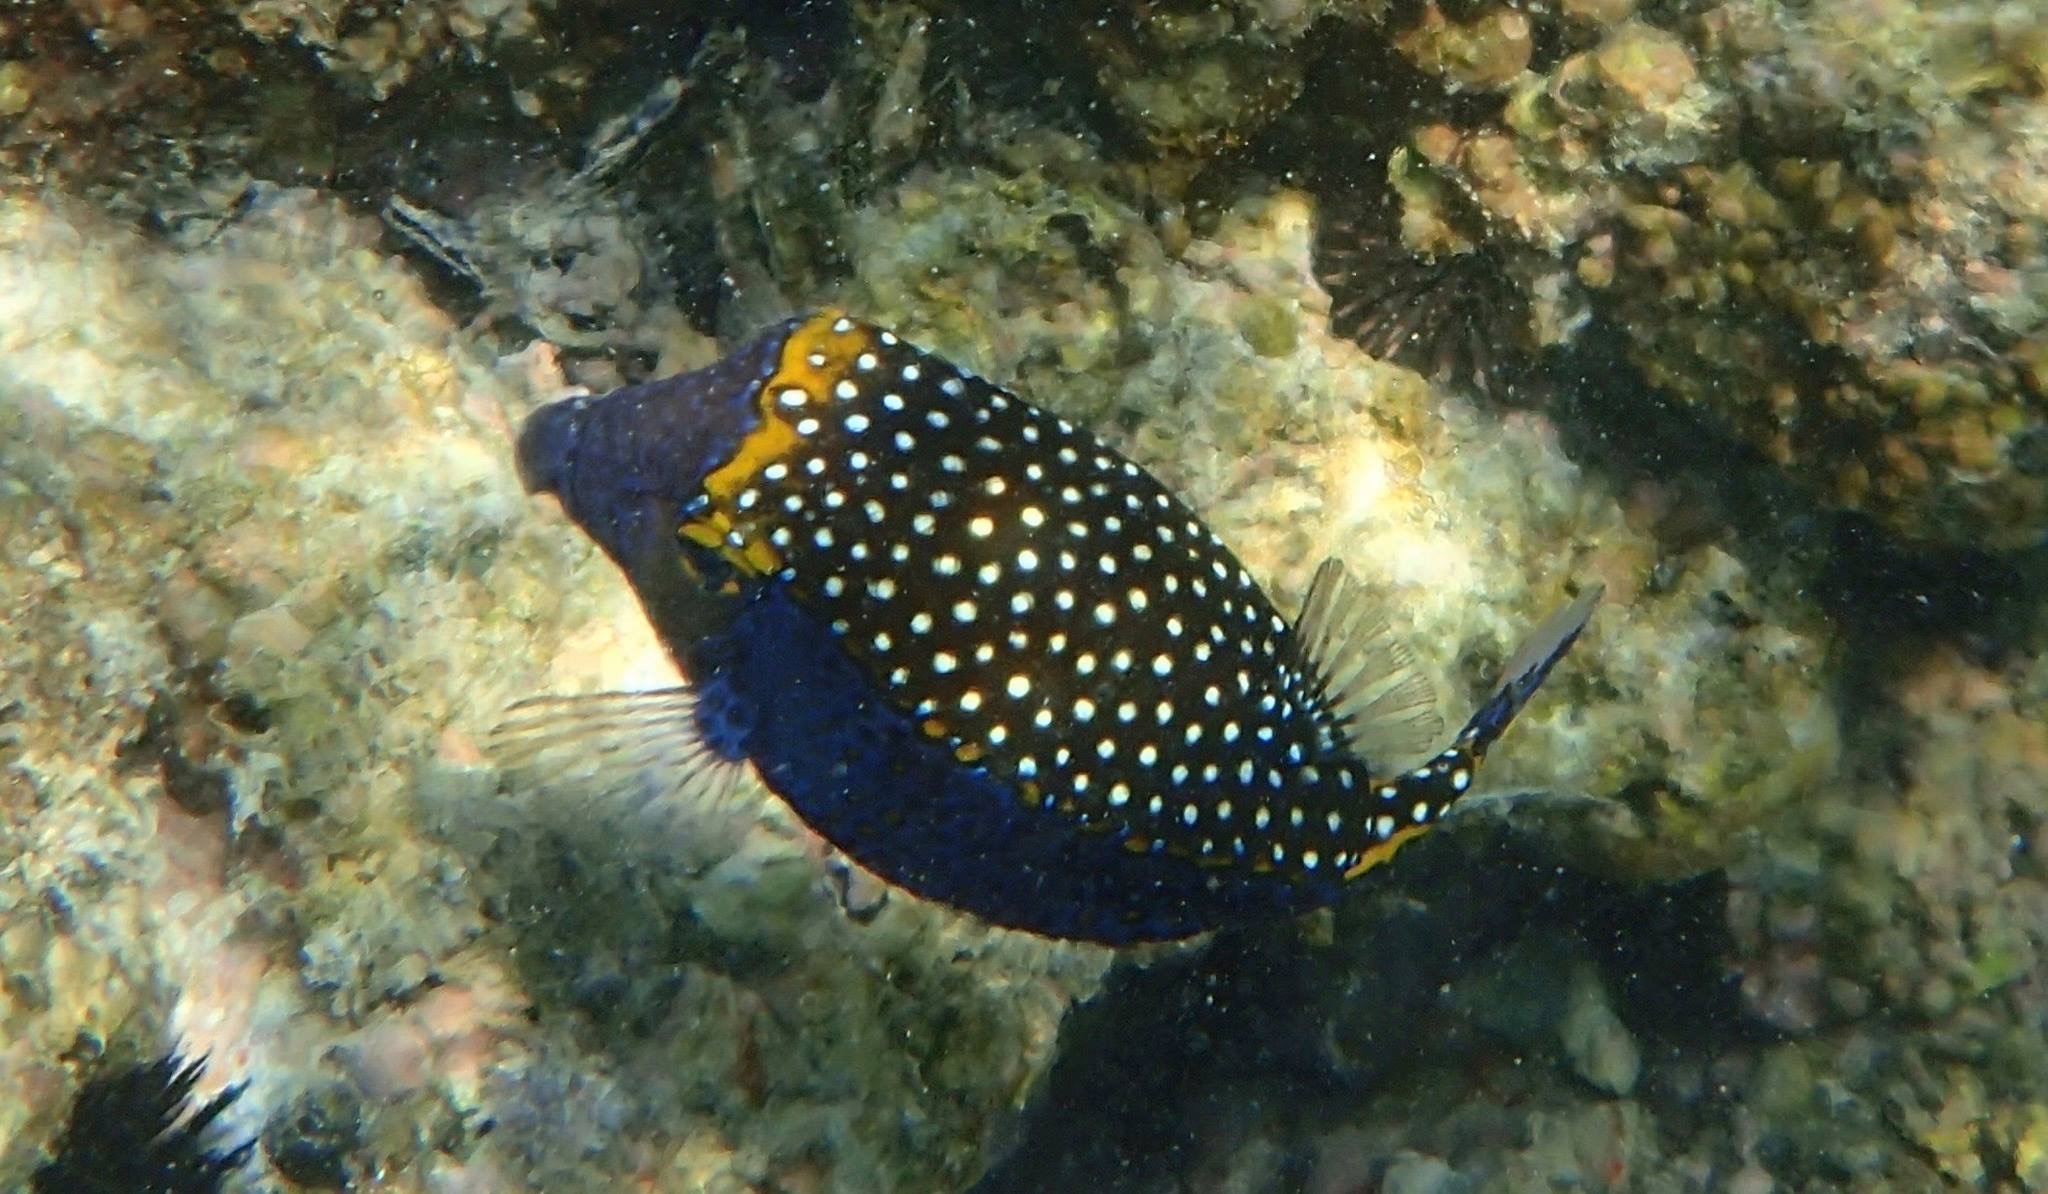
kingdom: Animalia
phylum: Chordata
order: Tetraodontiformes
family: Ostraciidae
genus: Ostracion
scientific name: Ostracion meleagris
